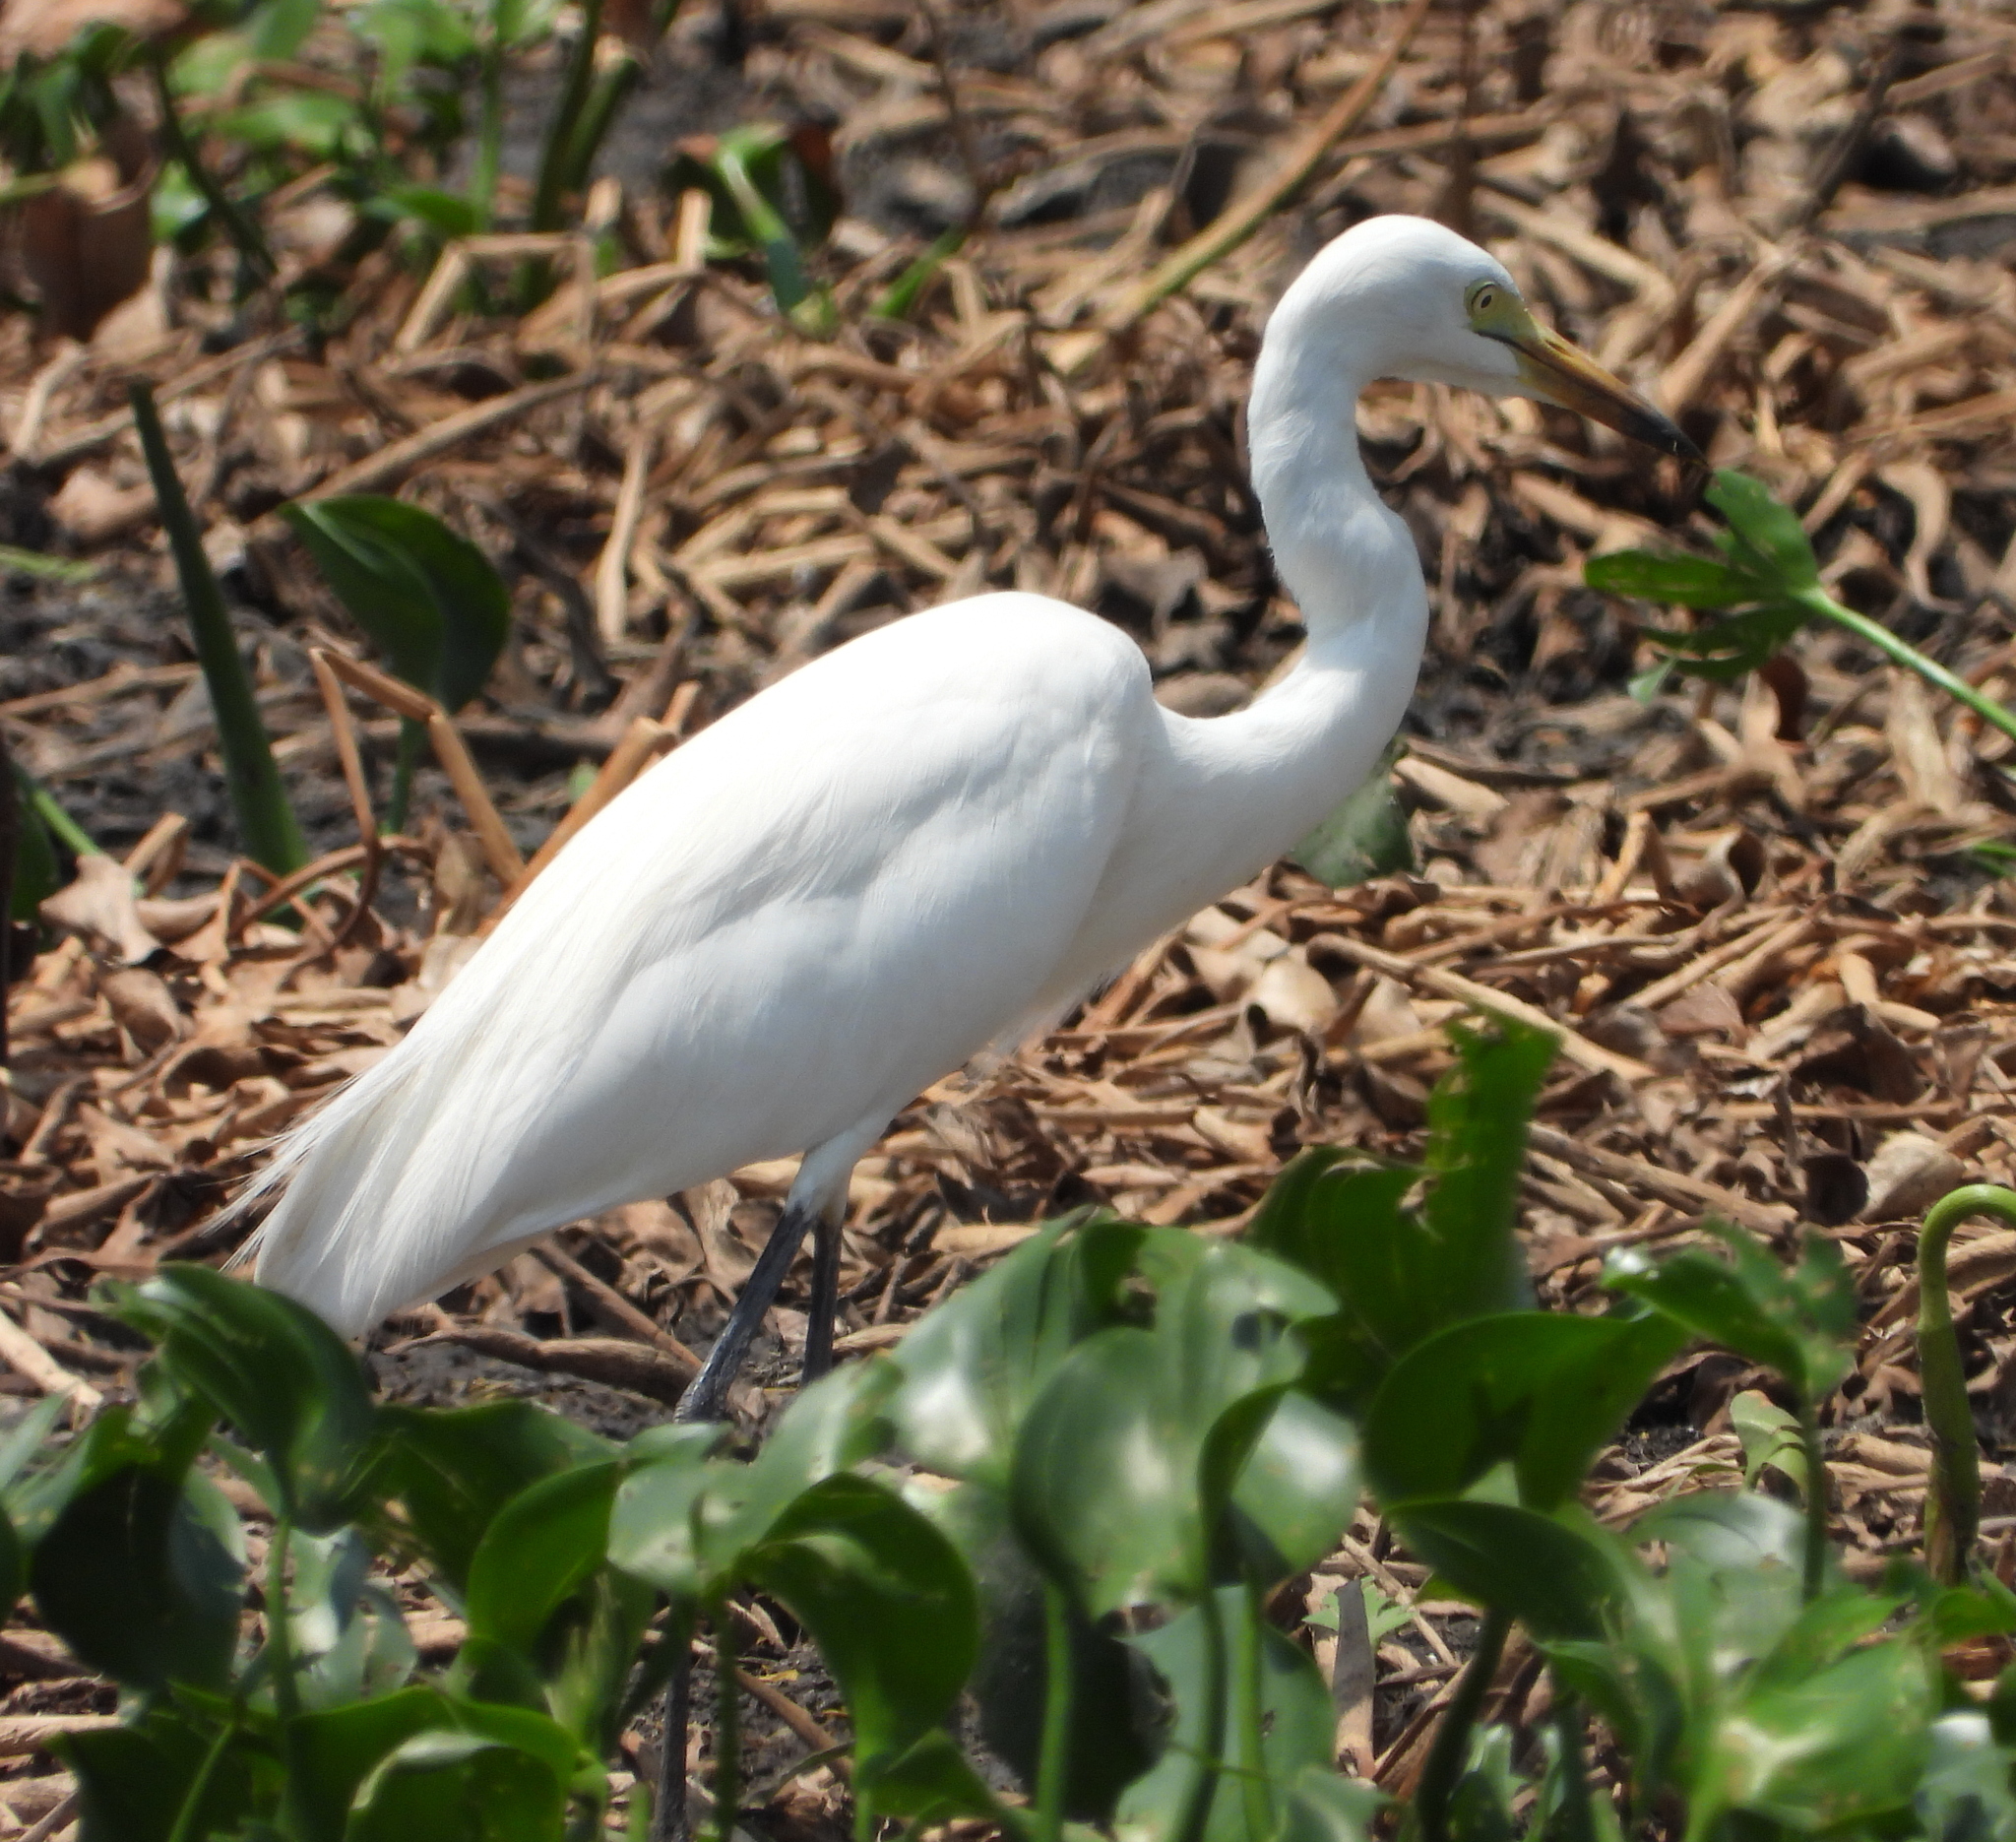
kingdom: Animalia
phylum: Chordata
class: Aves
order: Pelecaniformes
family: Ardeidae
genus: Egretta
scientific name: Egretta intermedia
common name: Intermediate egret
